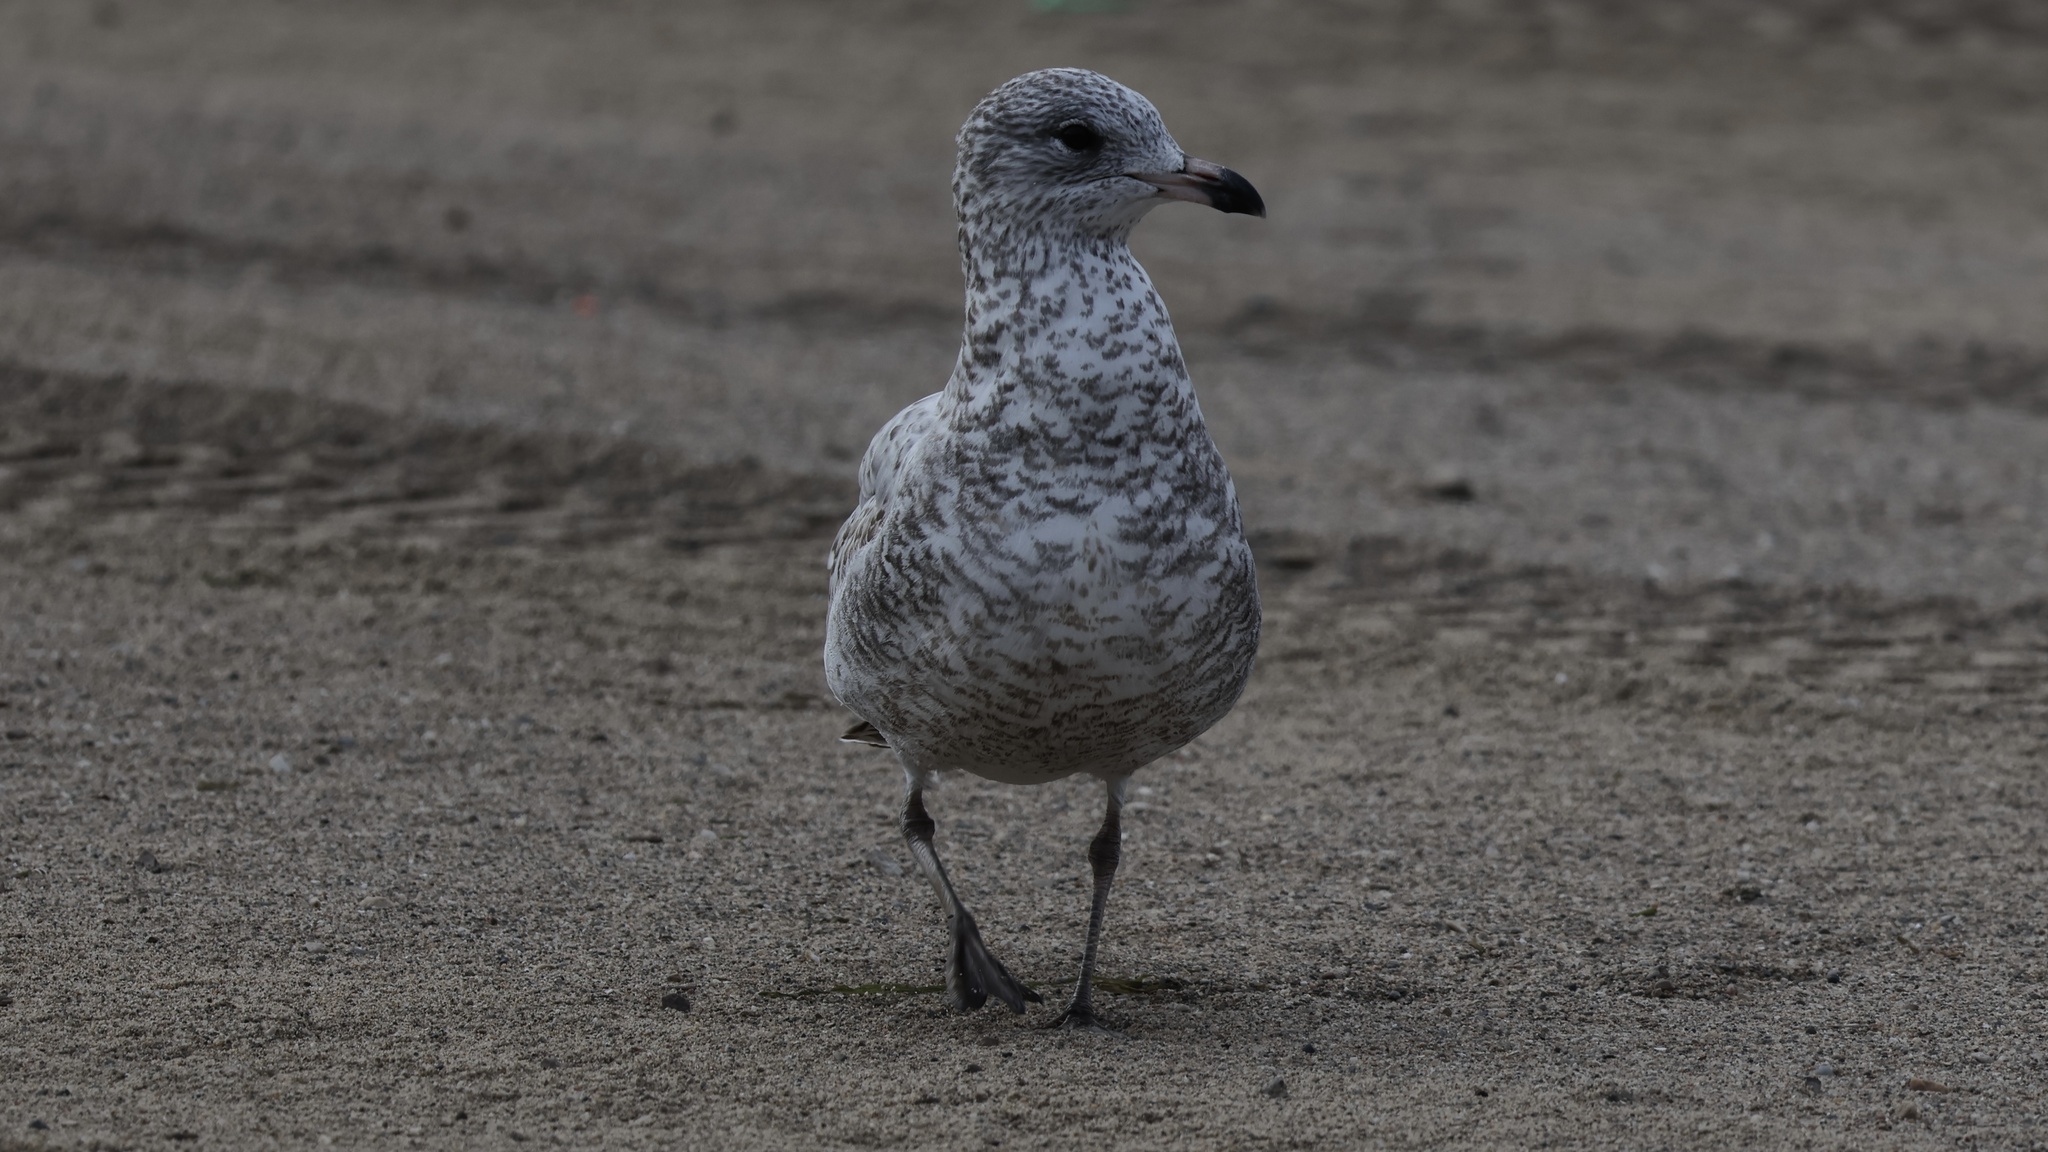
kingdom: Animalia
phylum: Chordata
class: Aves
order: Charadriiformes
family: Laridae
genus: Larus
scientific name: Larus delawarensis
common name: Ring-billed gull
